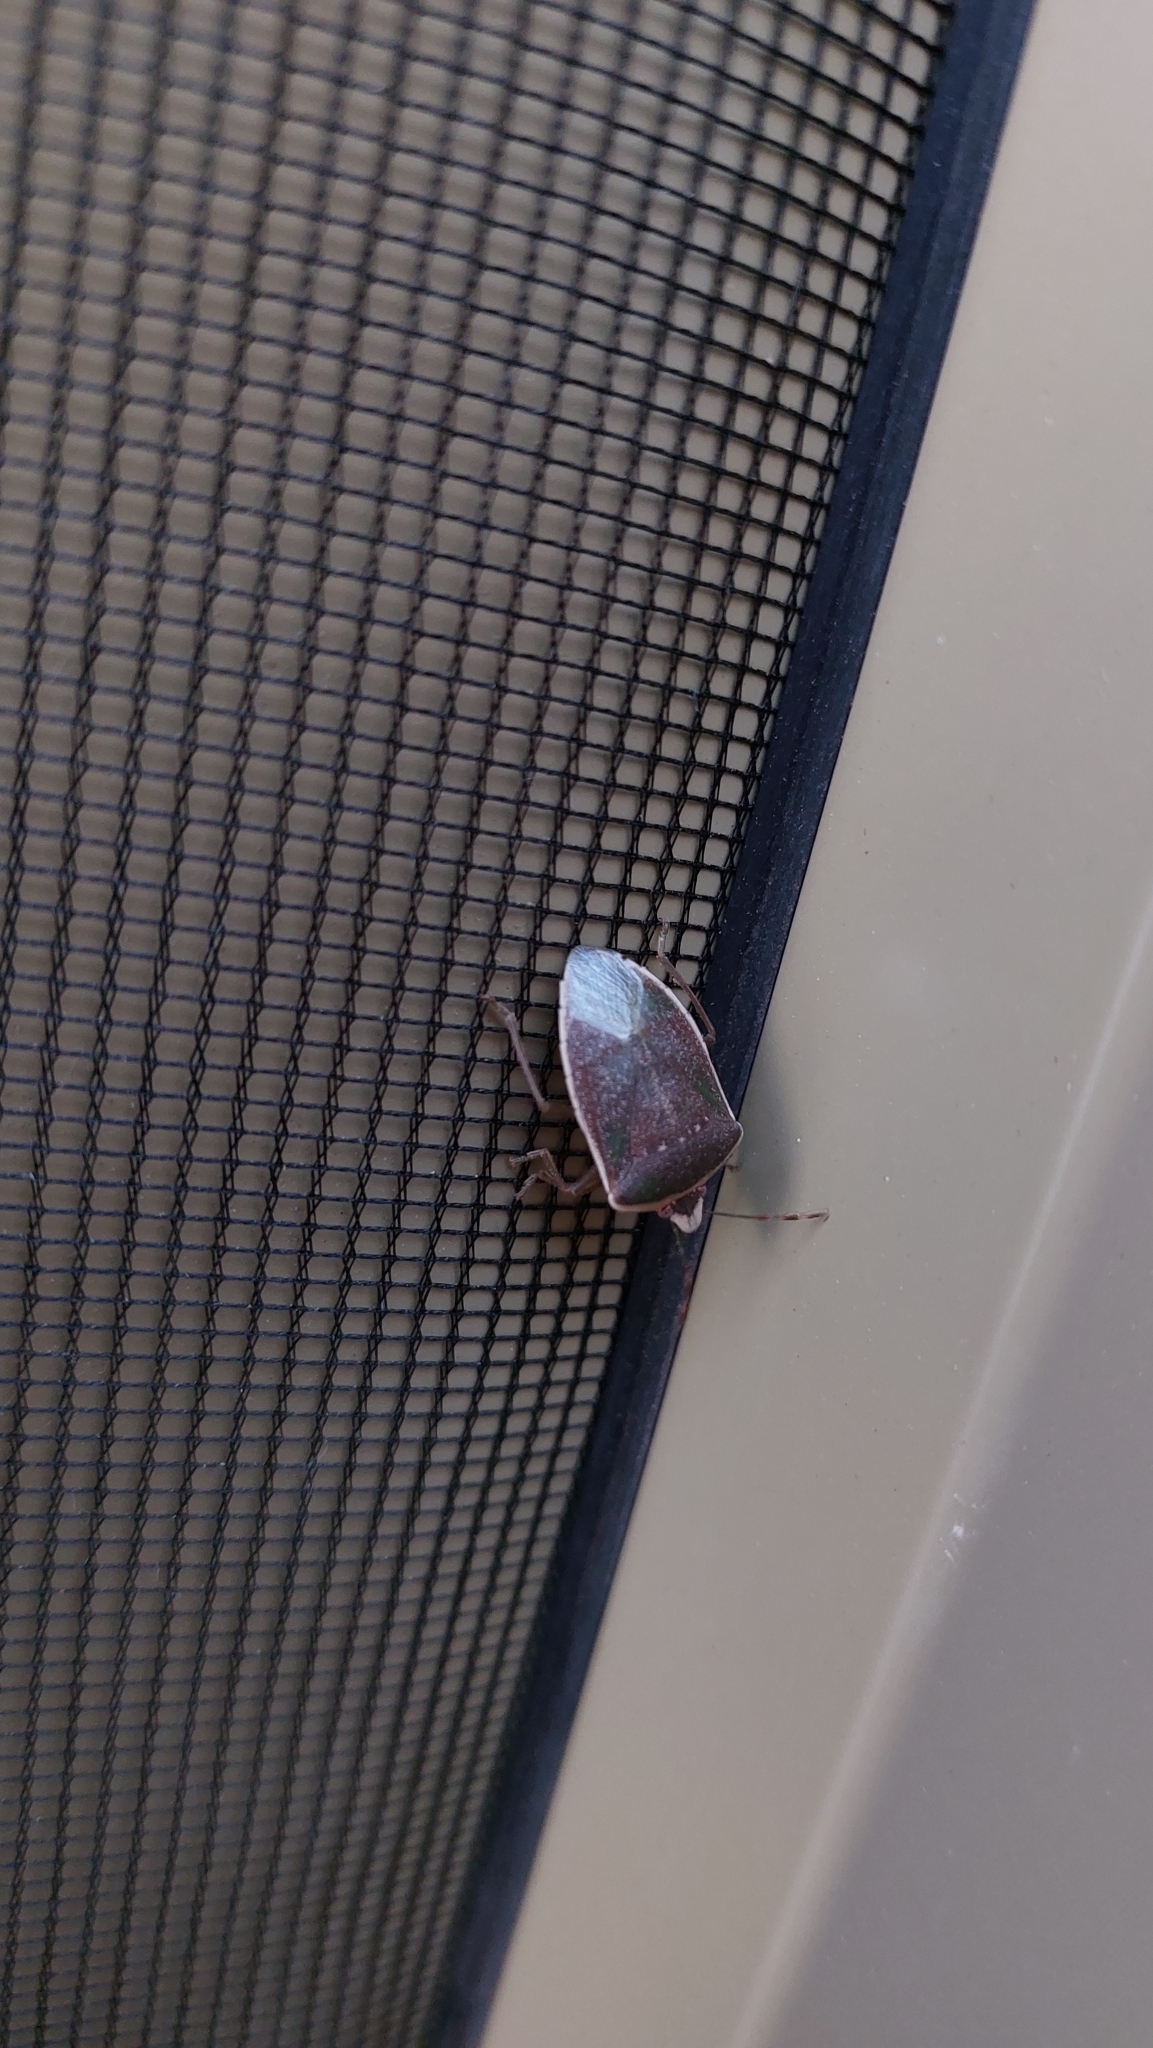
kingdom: Animalia
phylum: Arthropoda
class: Insecta
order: Hemiptera
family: Pentatomidae
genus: Nezara
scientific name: Nezara viridula
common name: Southern green stink bug
